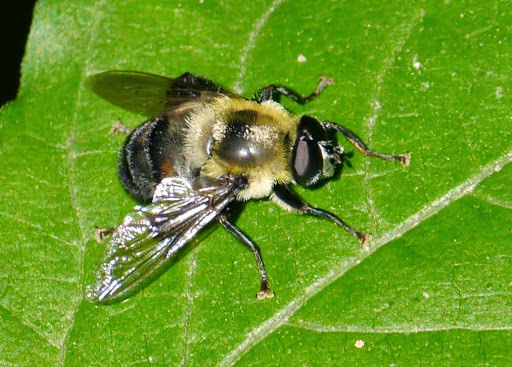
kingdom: Animalia
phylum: Arthropoda
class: Insecta
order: Diptera
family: Syrphidae
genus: Imatisma
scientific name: Imatisma posticata
